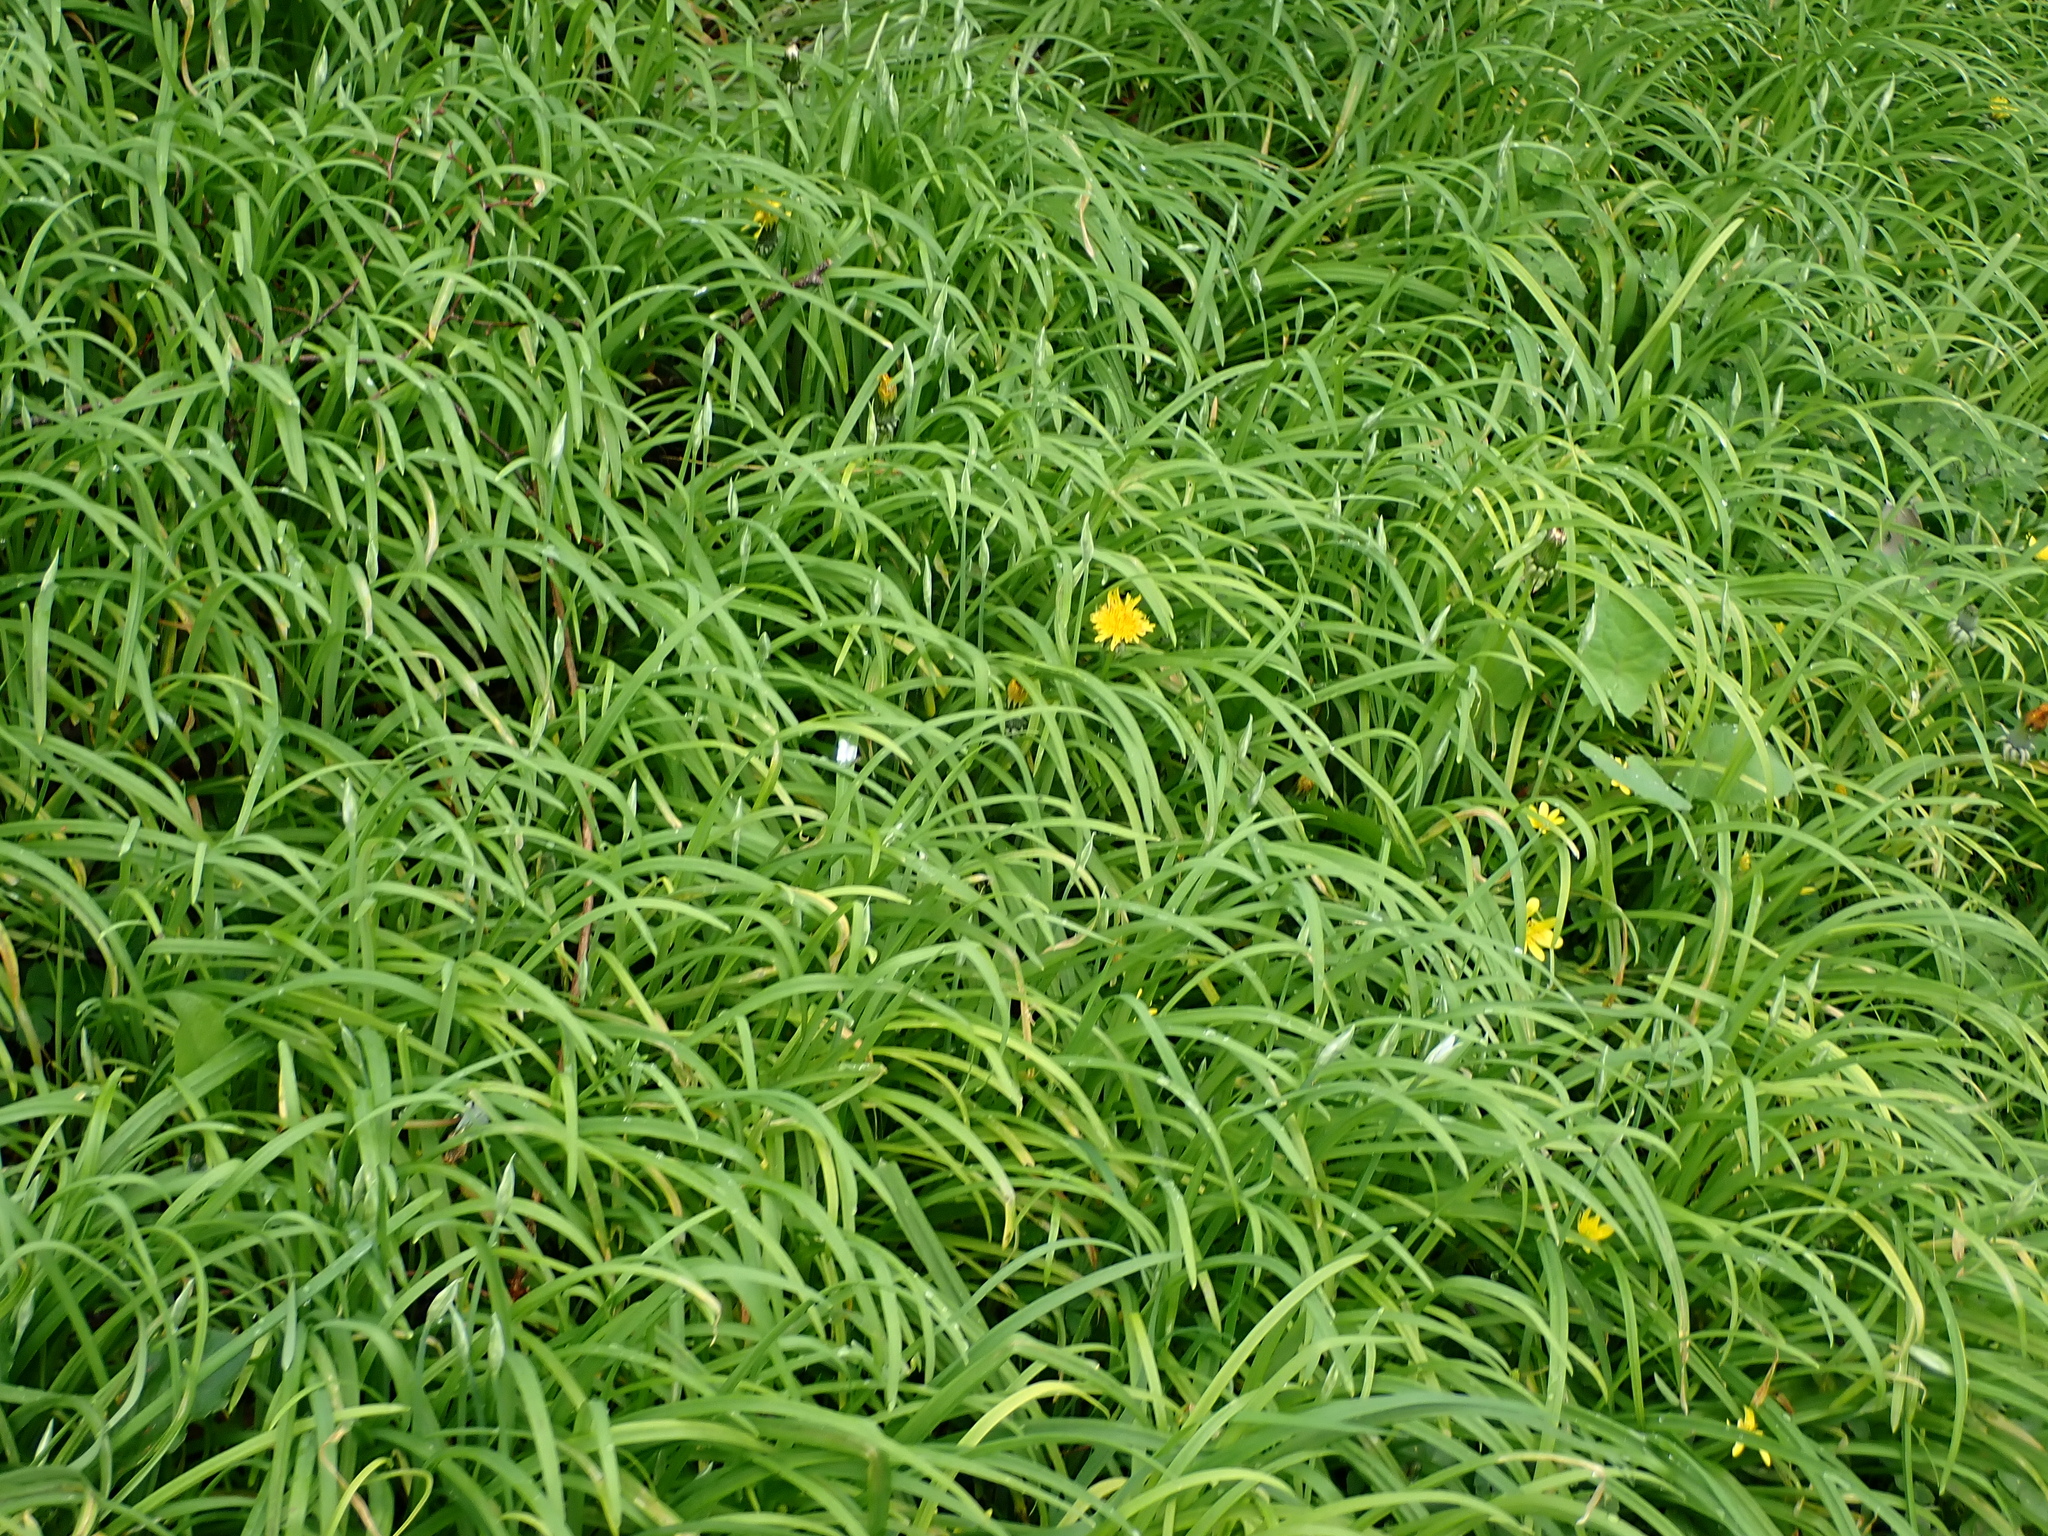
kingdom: Plantae
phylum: Tracheophyta
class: Liliopsida
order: Asparagales
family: Amaryllidaceae
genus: Allium
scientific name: Allium triquetrum
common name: Three-cornered garlic
